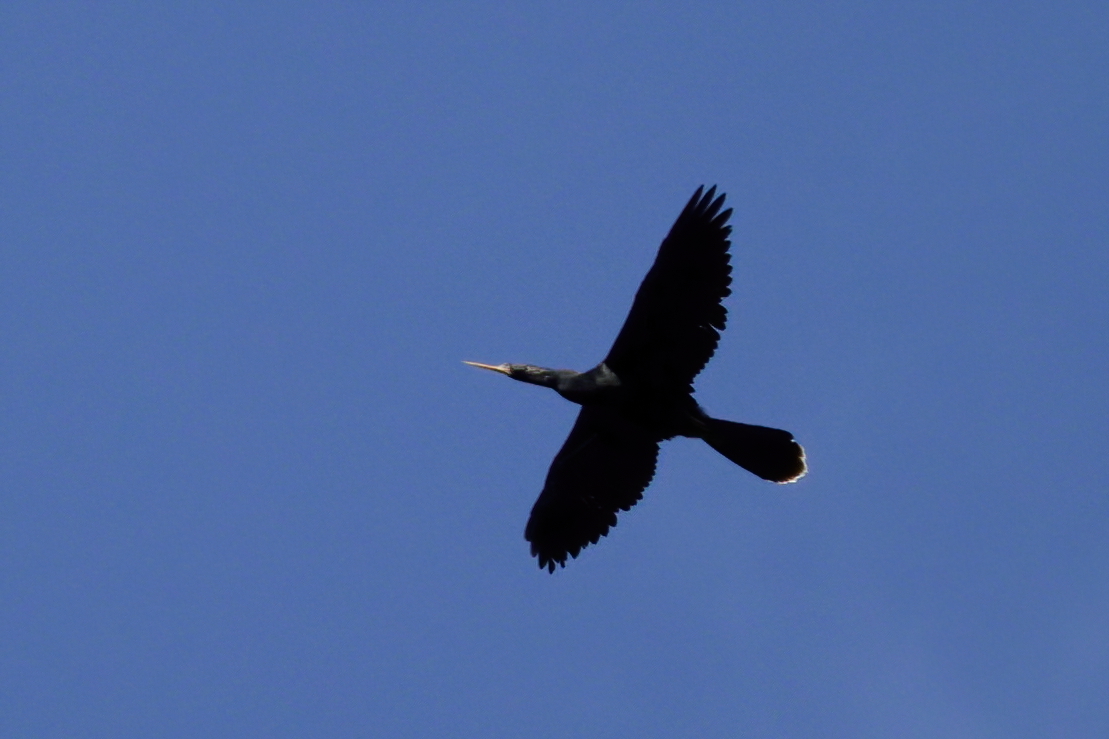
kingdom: Animalia
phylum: Chordata
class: Aves
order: Suliformes
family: Anhingidae
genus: Anhinga
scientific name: Anhinga anhinga
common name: Anhinga
